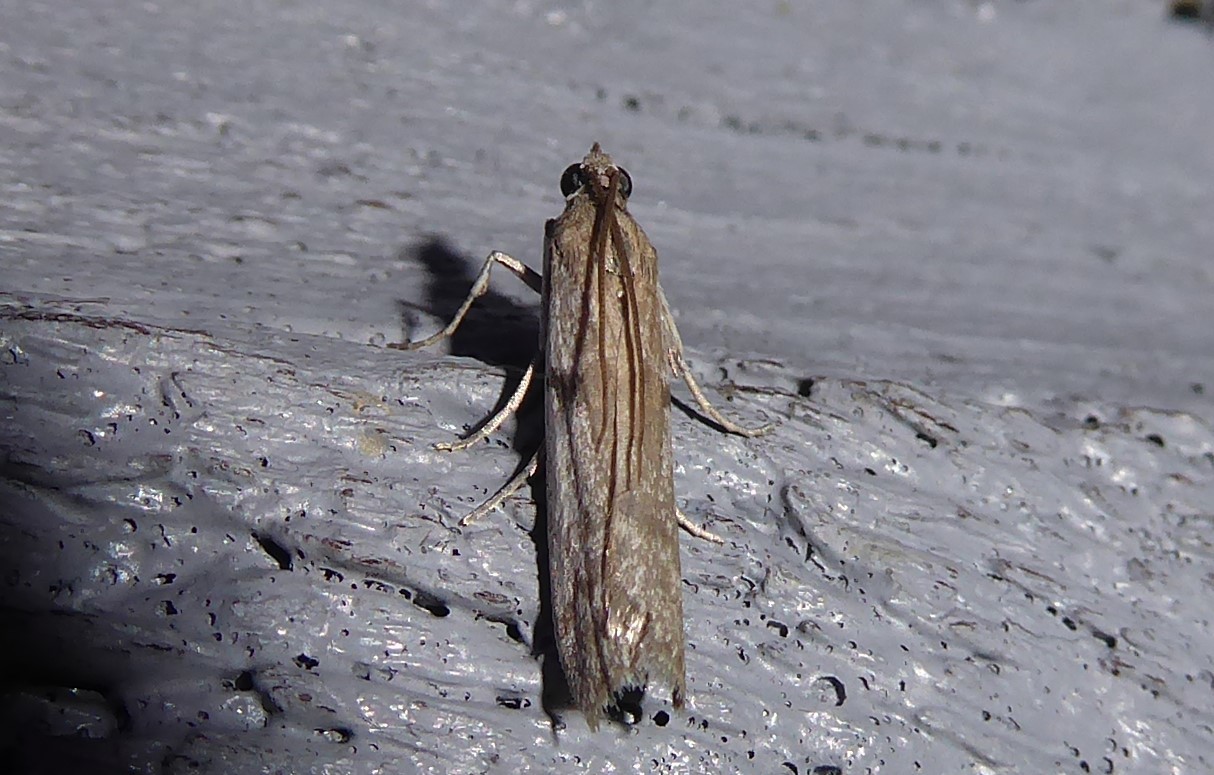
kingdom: Animalia
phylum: Arthropoda
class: Insecta
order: Lepidoptera
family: Pyralidae
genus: Patagoniodes
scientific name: Patagoniodes farinaria
